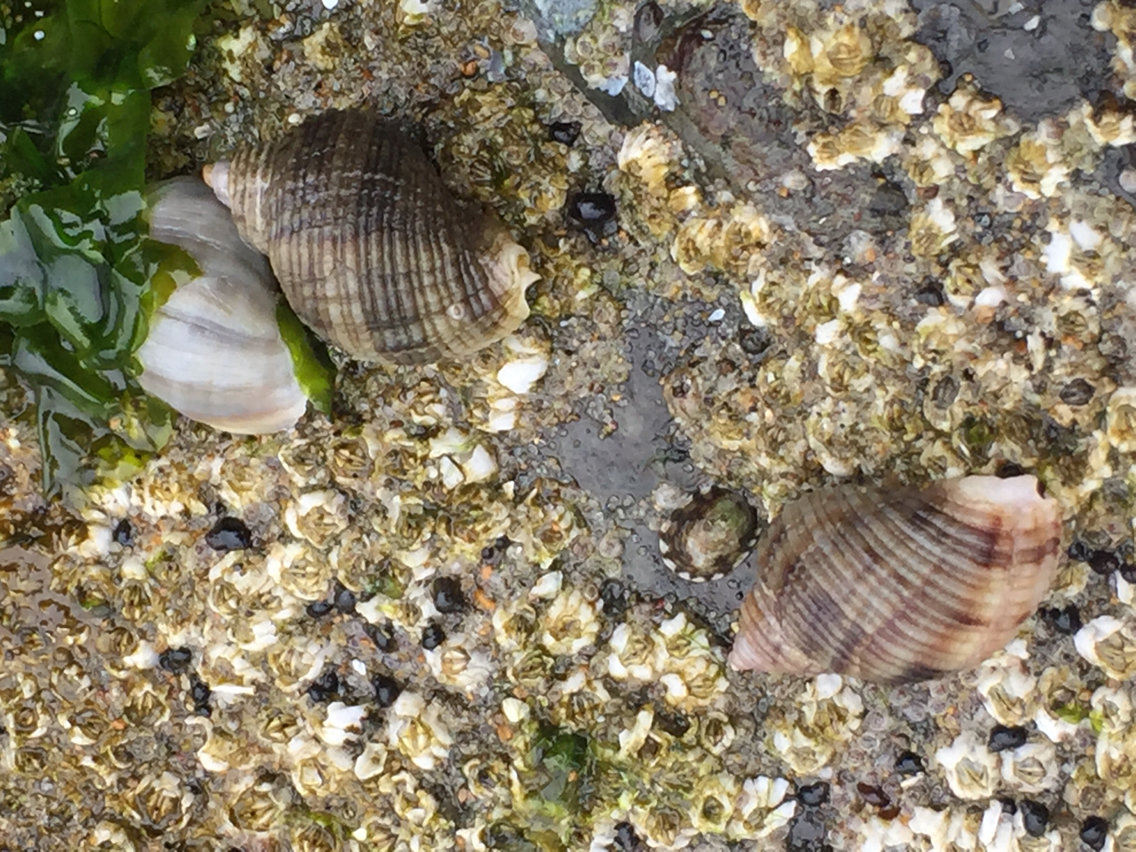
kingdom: Animalia
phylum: Mollusca
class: Gastropoda
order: Neogastropoda
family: Muricidae
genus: Nucella
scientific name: Nucella canaliculata
